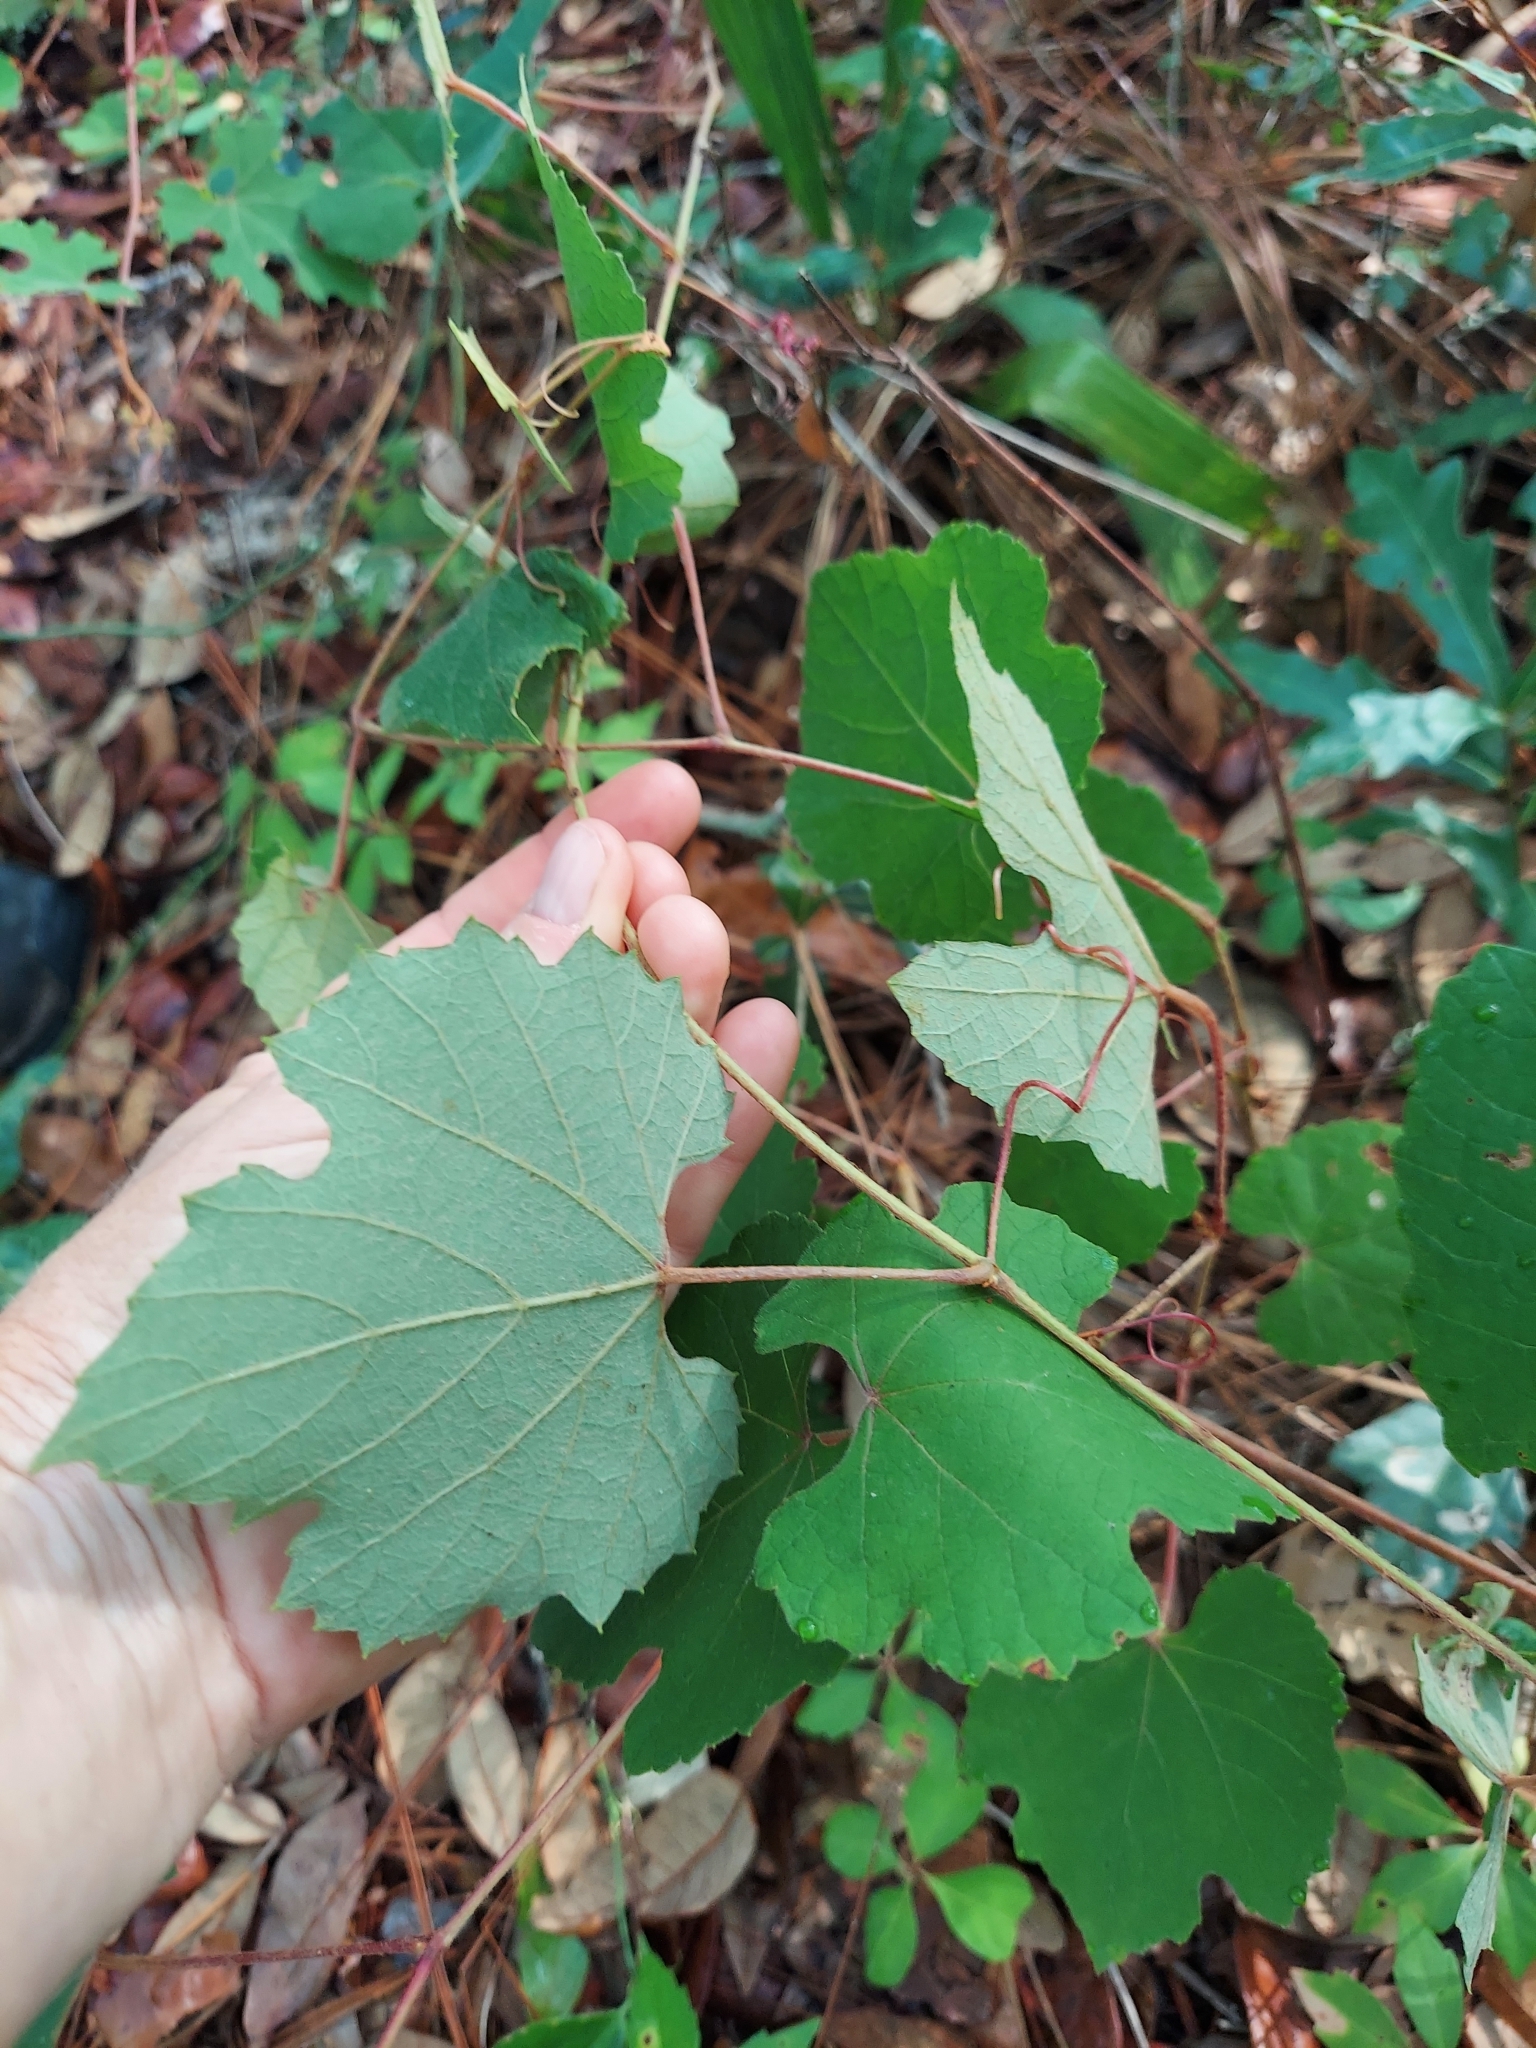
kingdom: Plantae
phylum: Tracheophyta
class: Magnoliopsida
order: Vitales
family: Vitaceae
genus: Vitis
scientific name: Vitis aestivalis
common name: Pigeon grape
